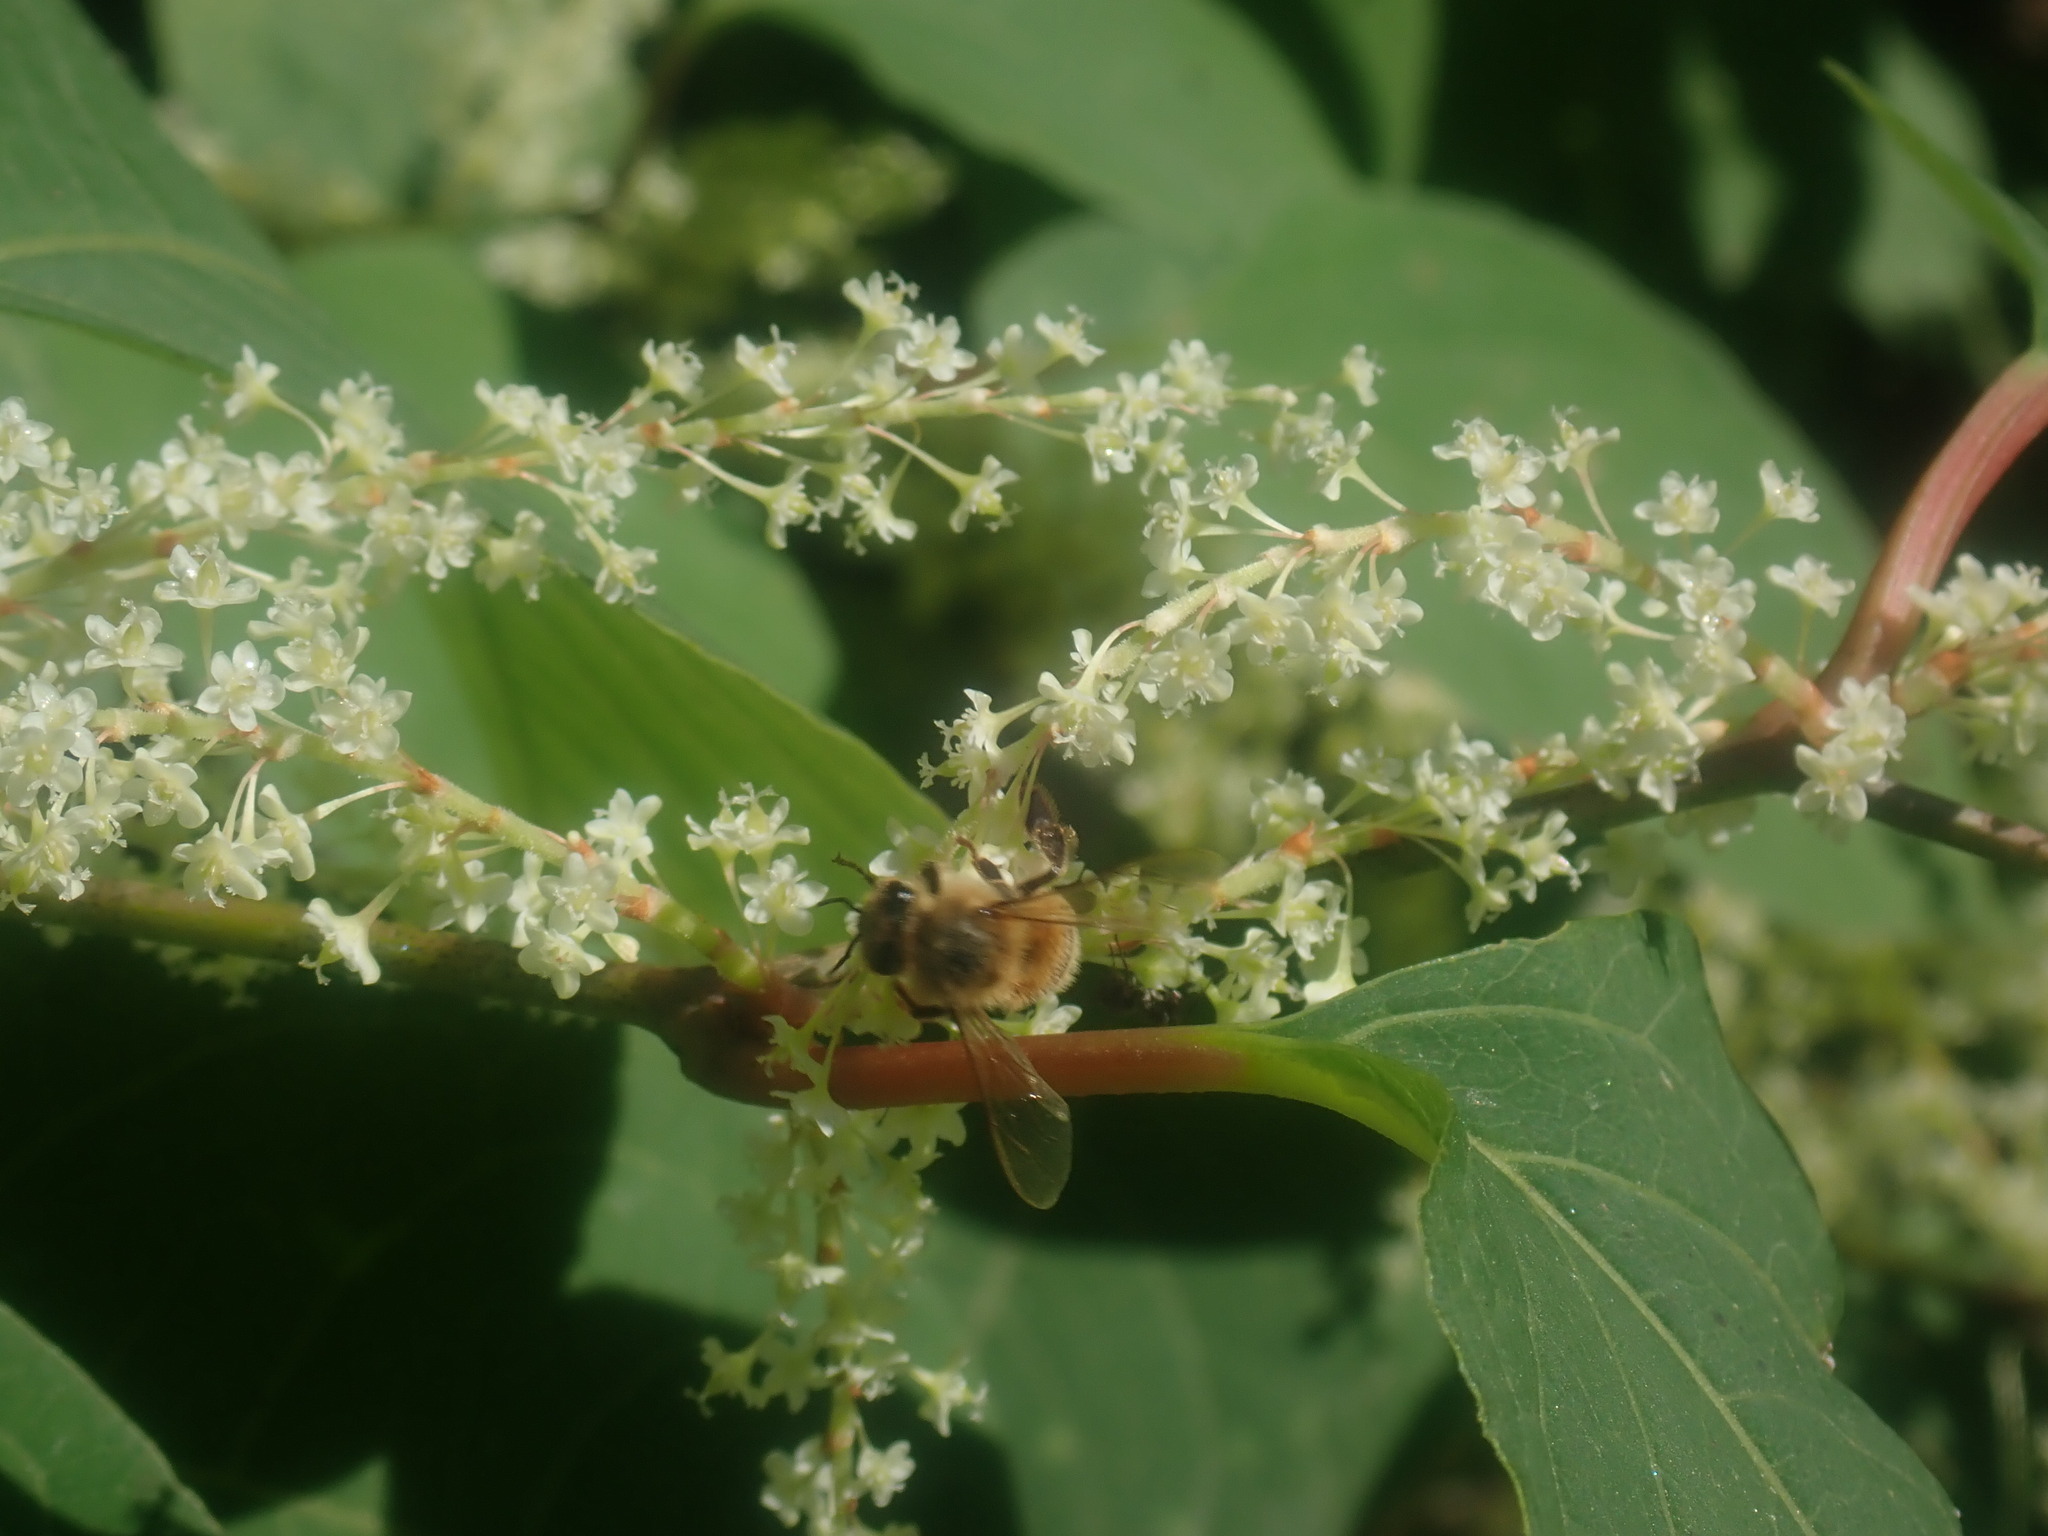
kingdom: Animalia
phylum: Arthropoda
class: Insecta
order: Hymenoptera
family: Apidae
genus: Apis
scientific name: Apis mellifera
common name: Honey bee
